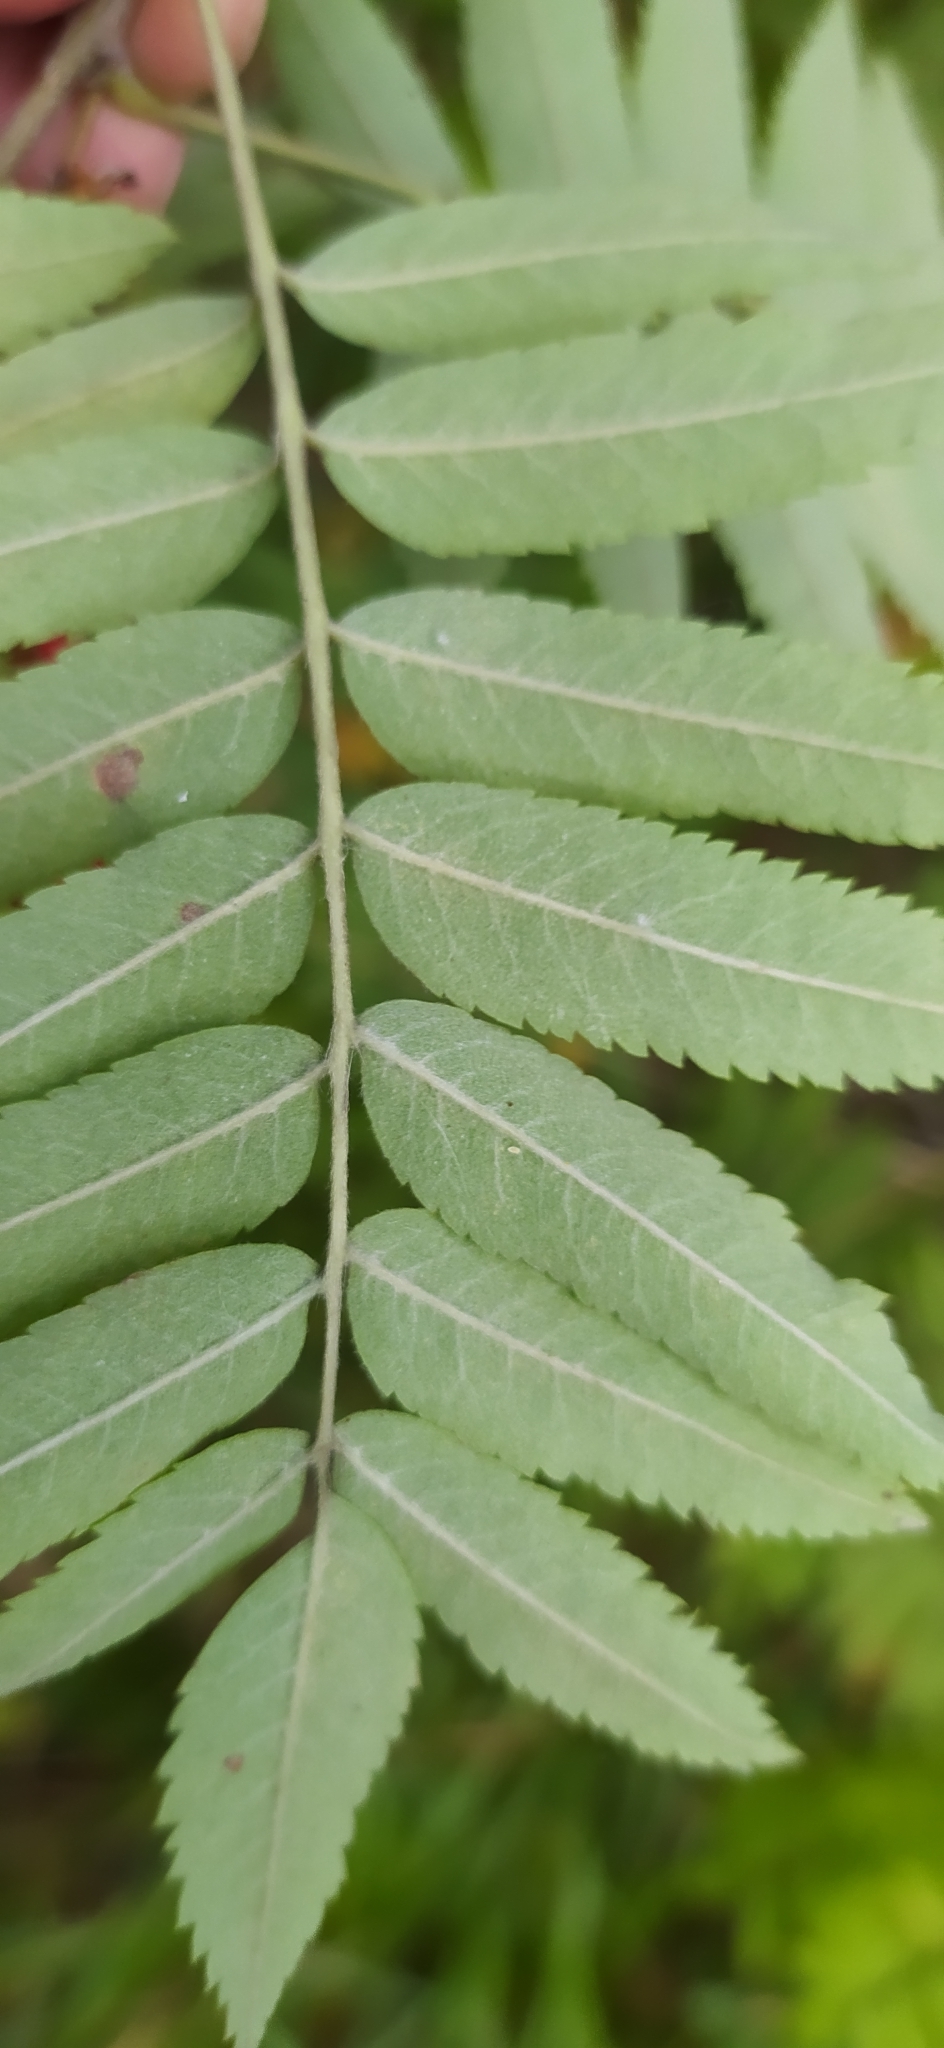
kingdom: Plantae
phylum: Tracheophyta
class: Magnoliopsida
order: Rosales
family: Rosaceae
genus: Sorbus
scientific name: Sorbus aucuparia
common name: Rowan
